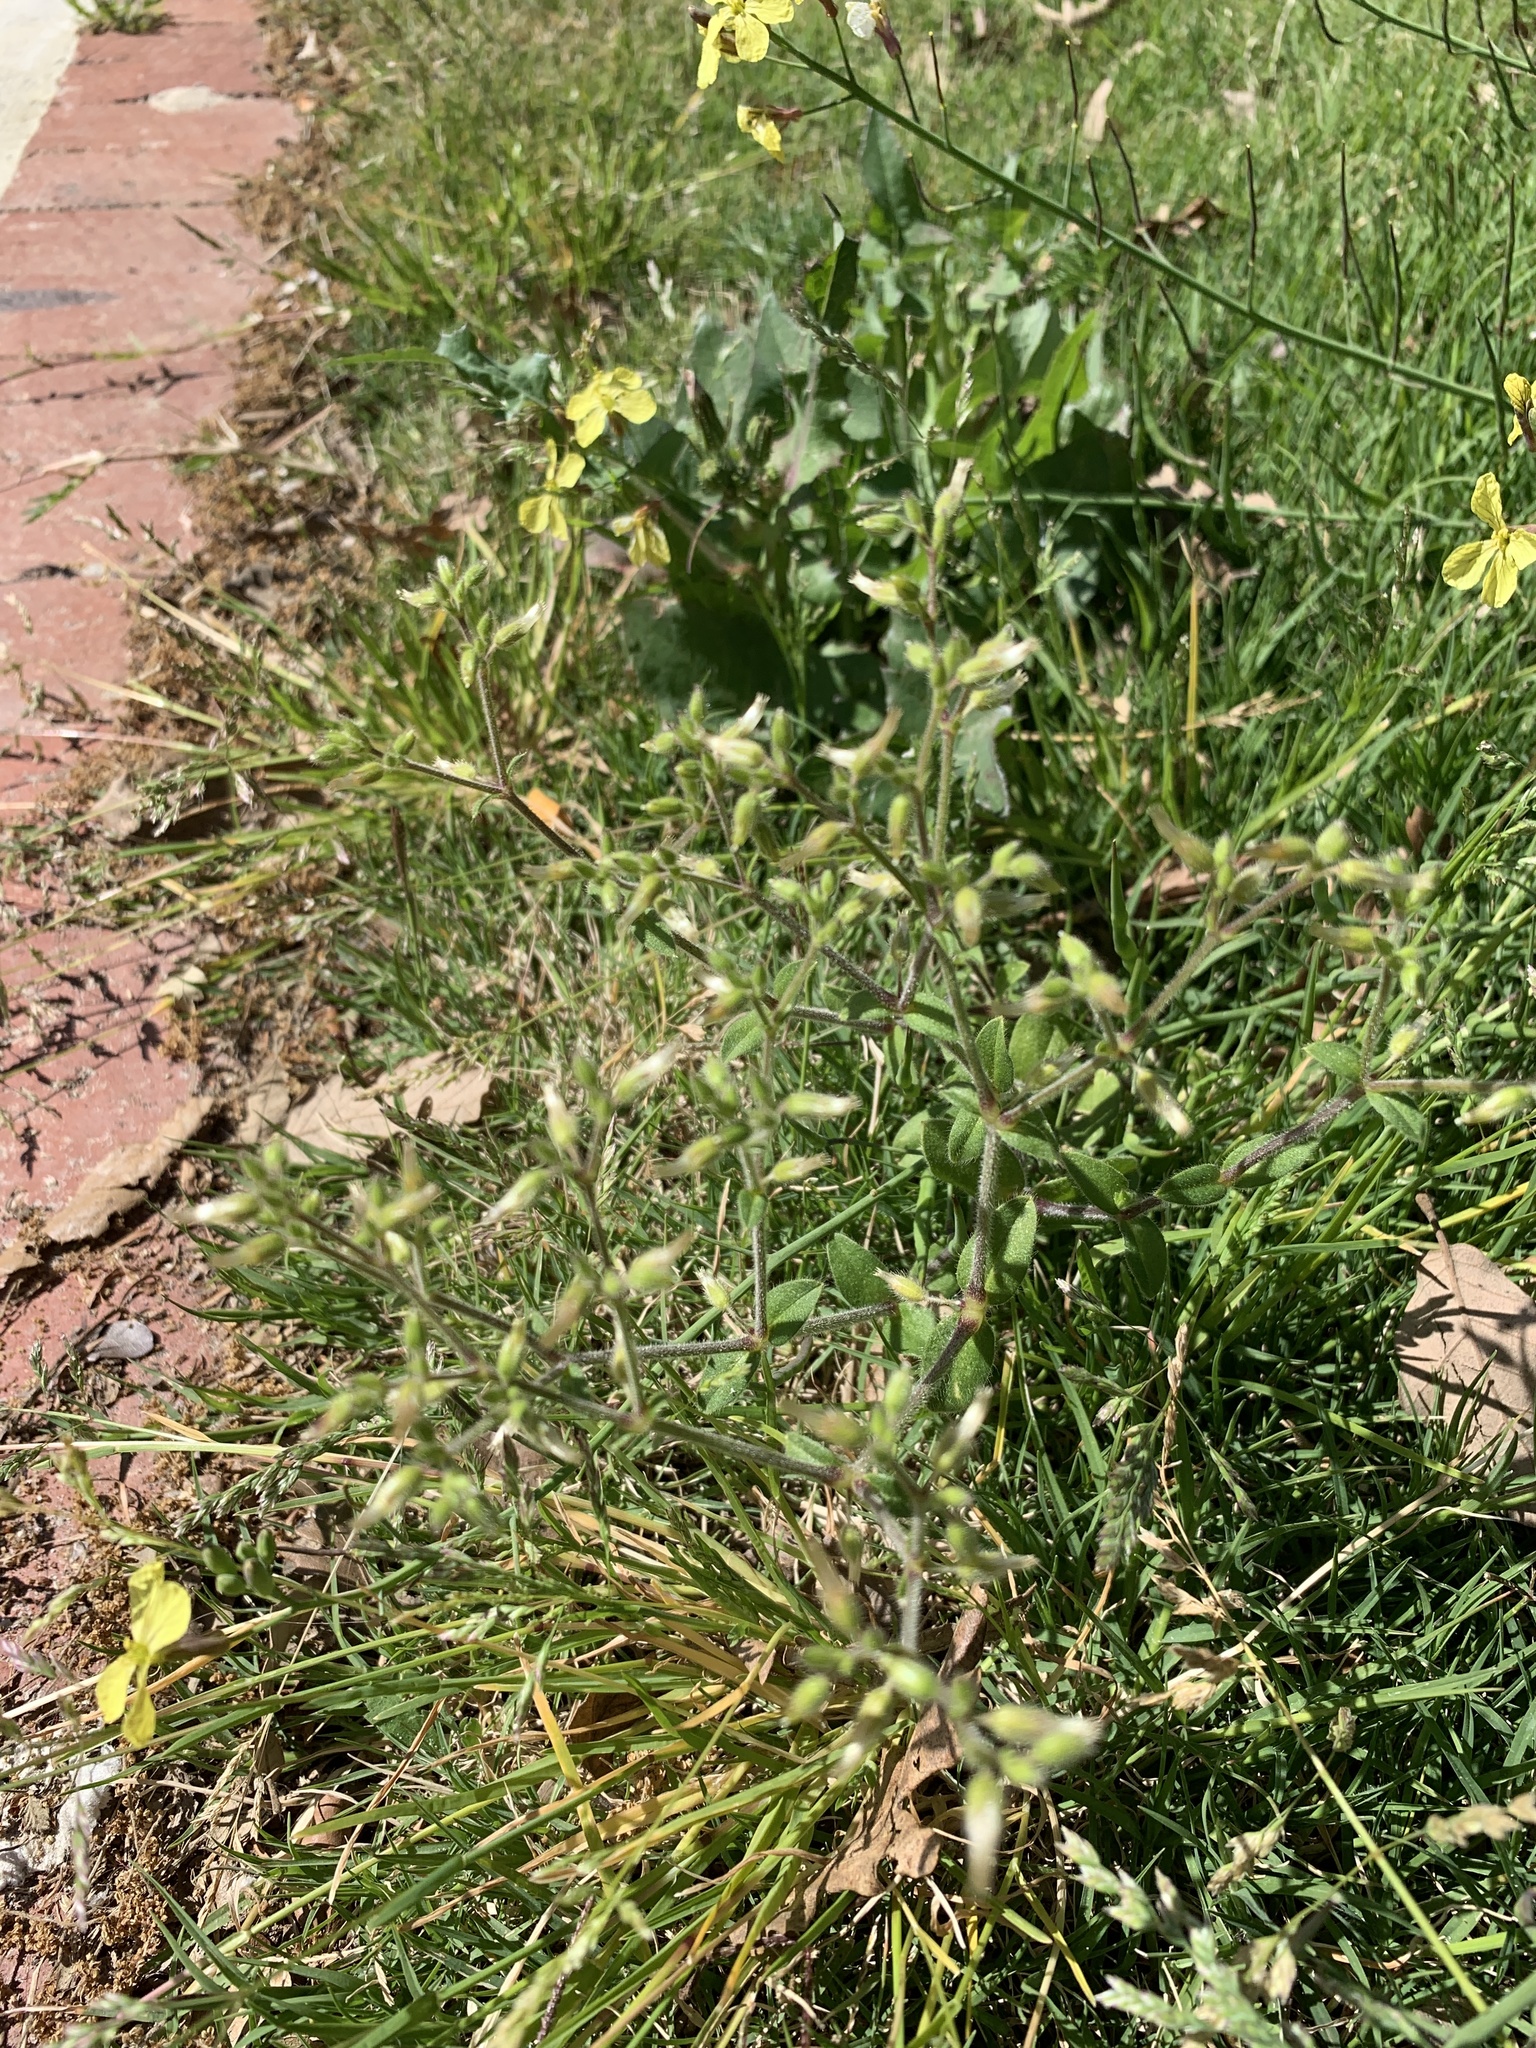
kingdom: Plantae
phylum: Tracheophyta
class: Magnoliopsida
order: Caryophyllales
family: Caryophyllaceae
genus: Cerastium
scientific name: Cerastium glomeratum
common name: Sticky chickweed
